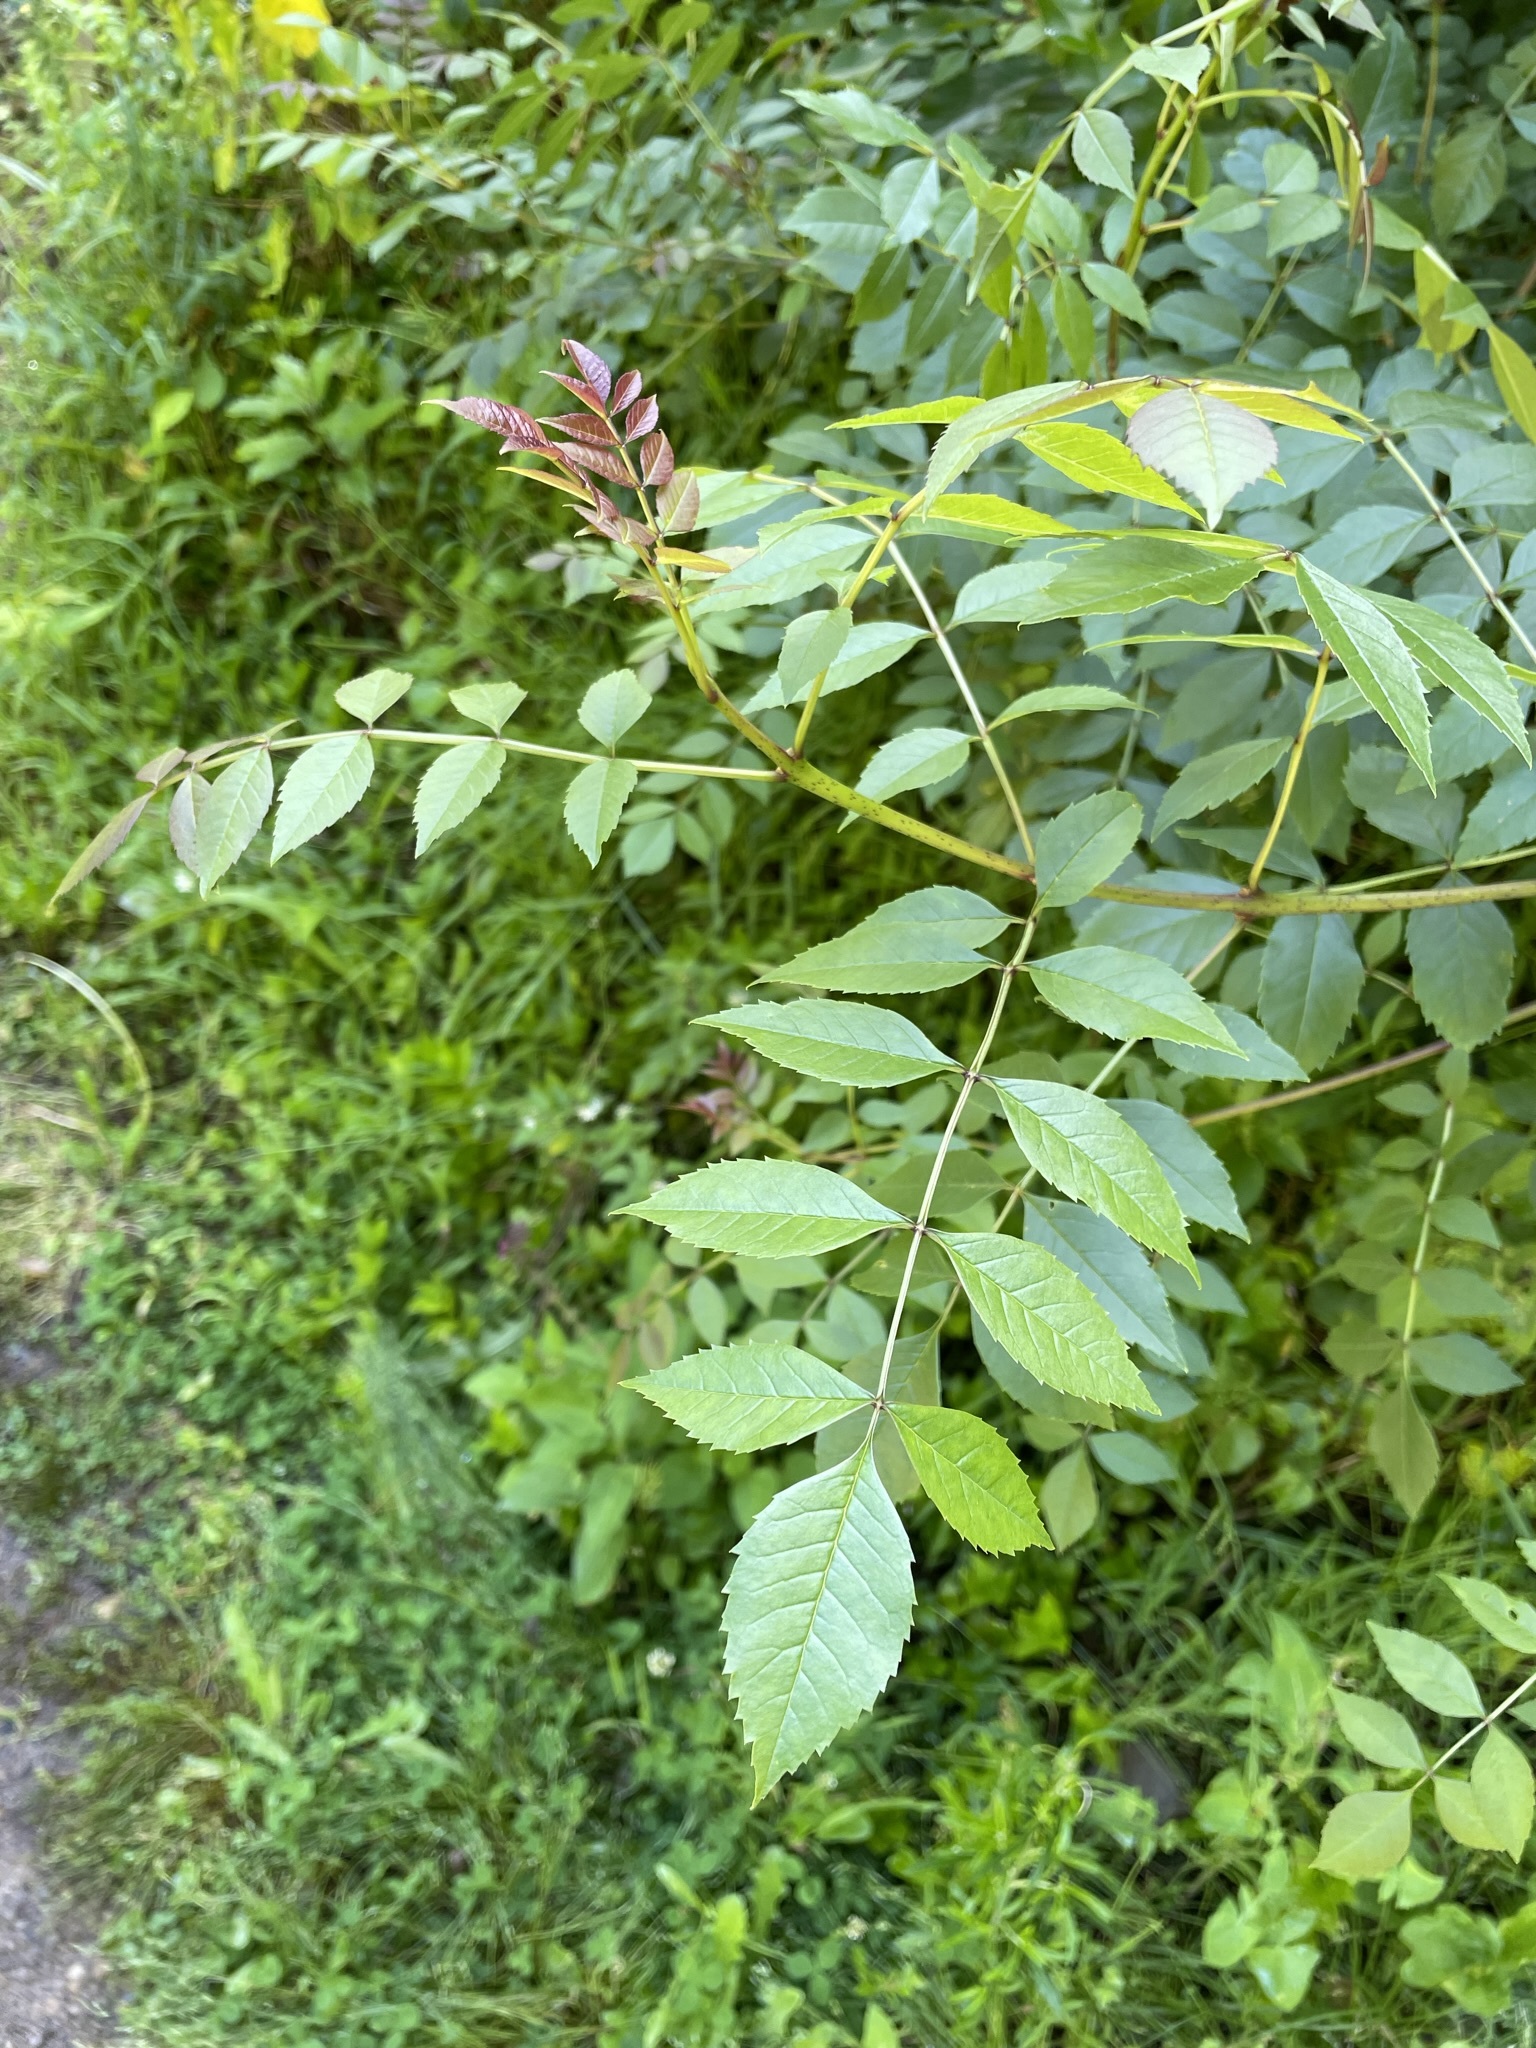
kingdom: Plantae
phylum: Tracheophyta
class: Magnoliopsida
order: Lamiales
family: Oleaceae
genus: Fraxinus
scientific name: Fraxinus excelsior
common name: European ash
